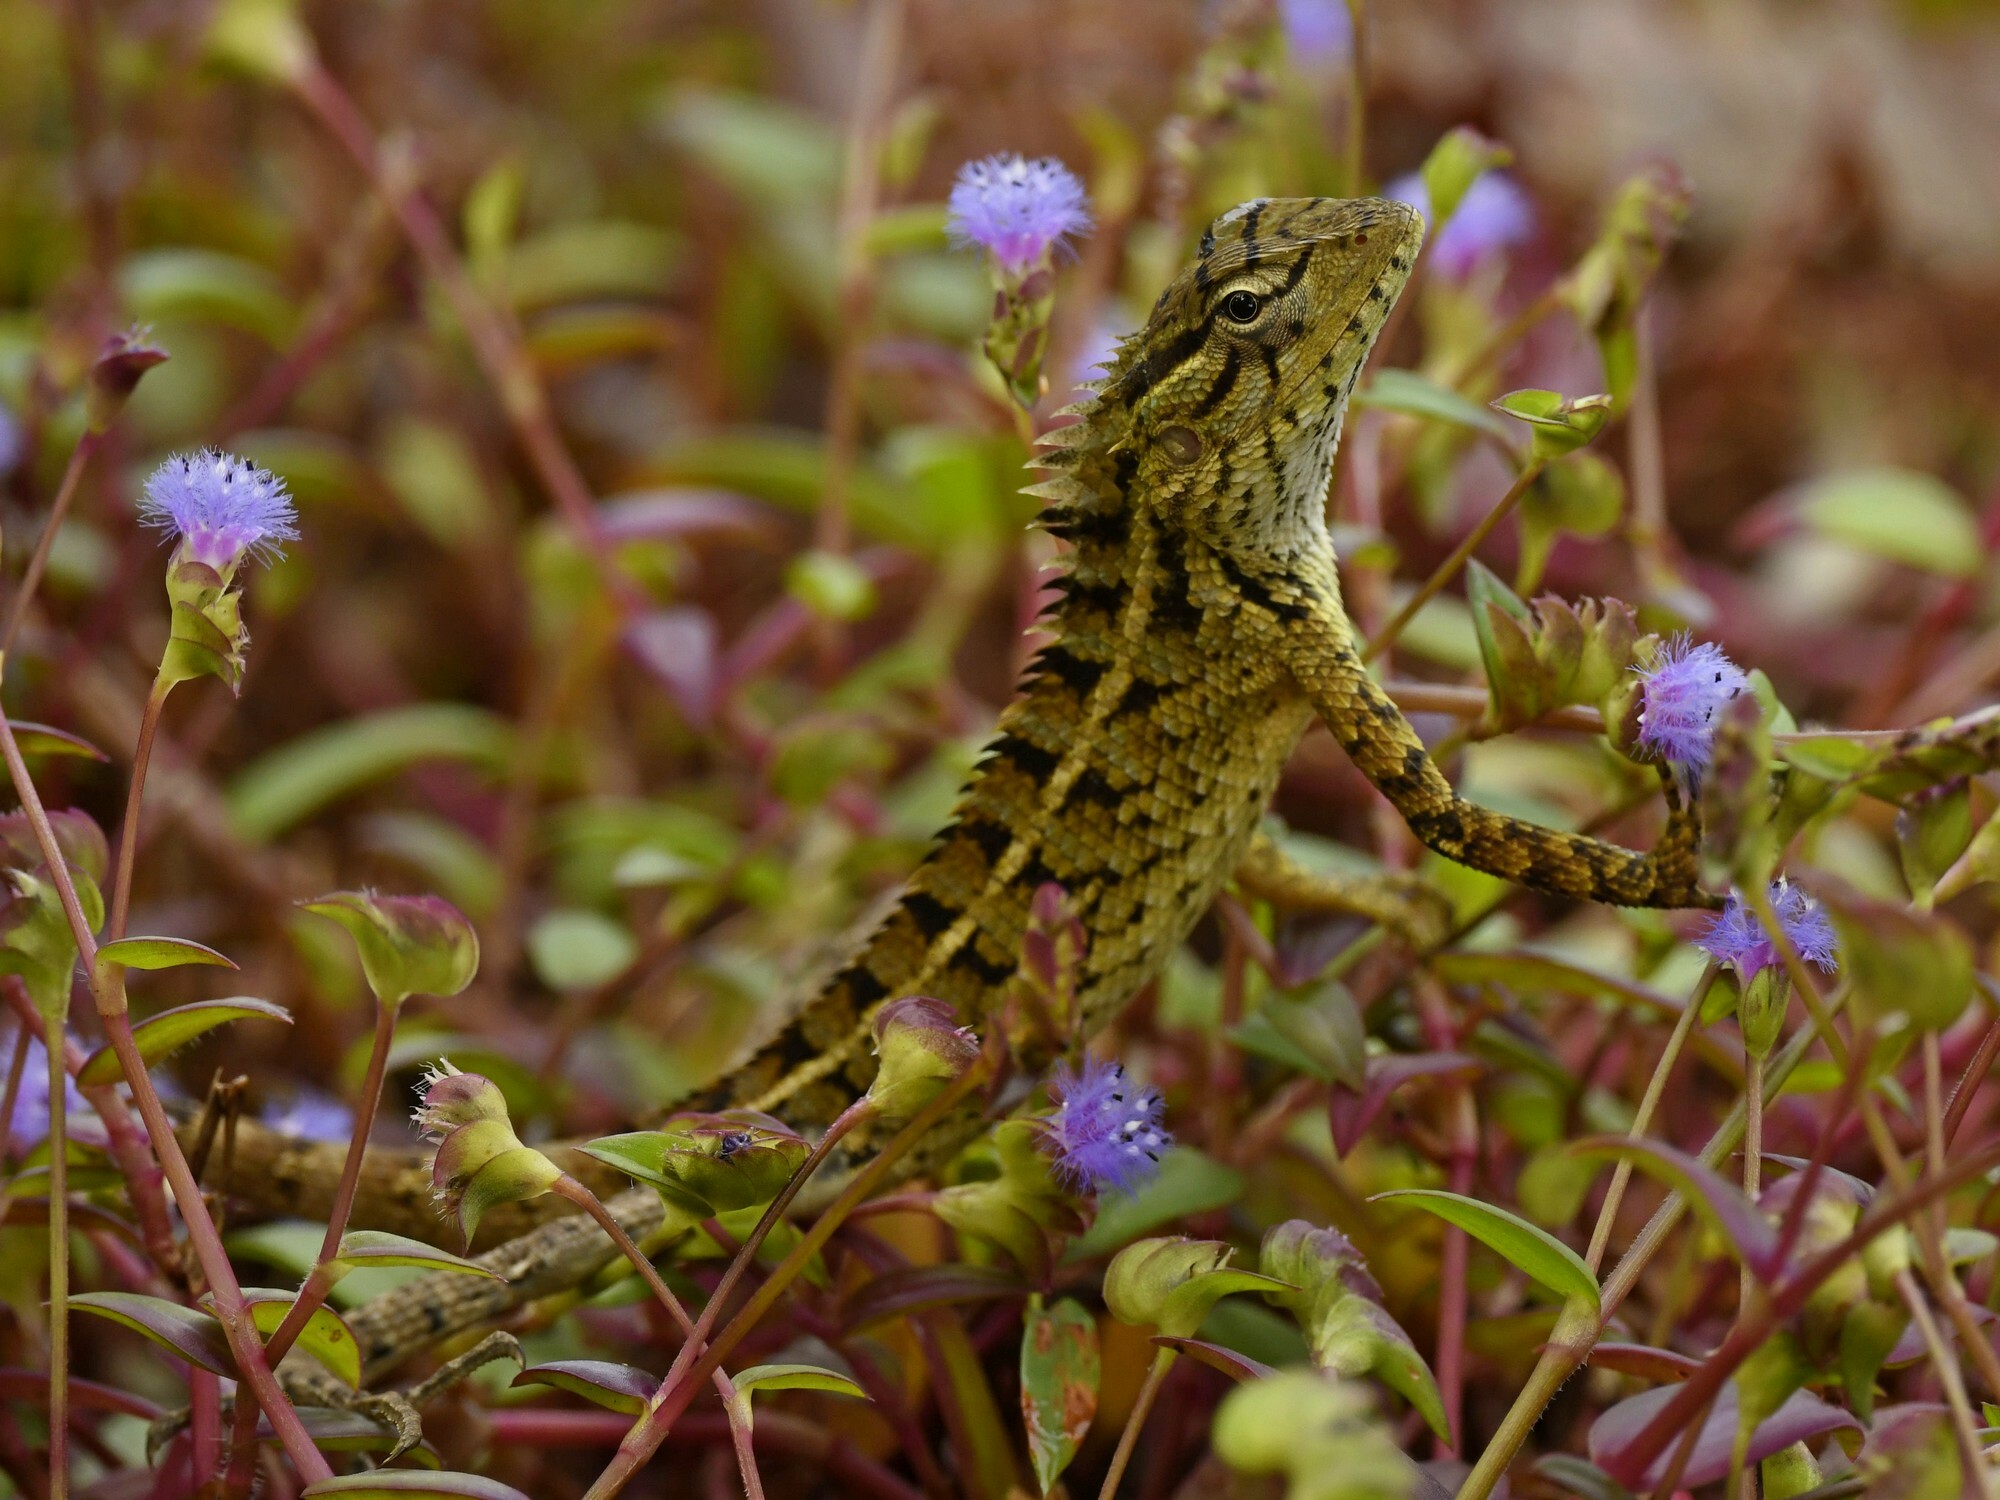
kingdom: Animalia
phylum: Chordata
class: Squamata
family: Agamidae
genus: Calotes
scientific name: Calotes versicolor
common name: Oriental garden lizard
